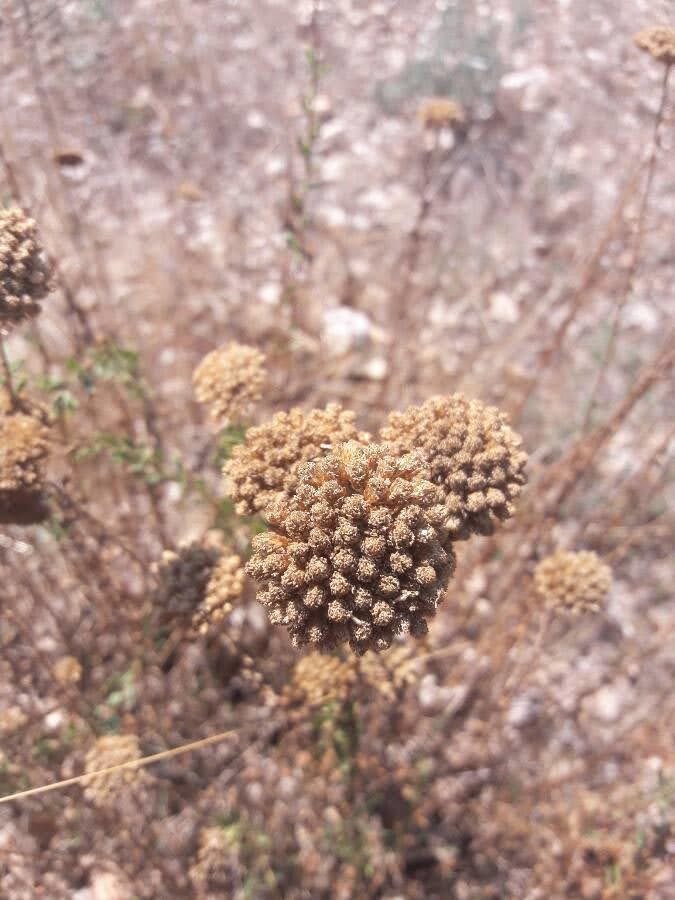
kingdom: Plantae
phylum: Tracheophyta
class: Magnoliopsida
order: Asterales
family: Asteraceae
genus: Achillea
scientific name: Achillea ageratum
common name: Sweet-nancy
